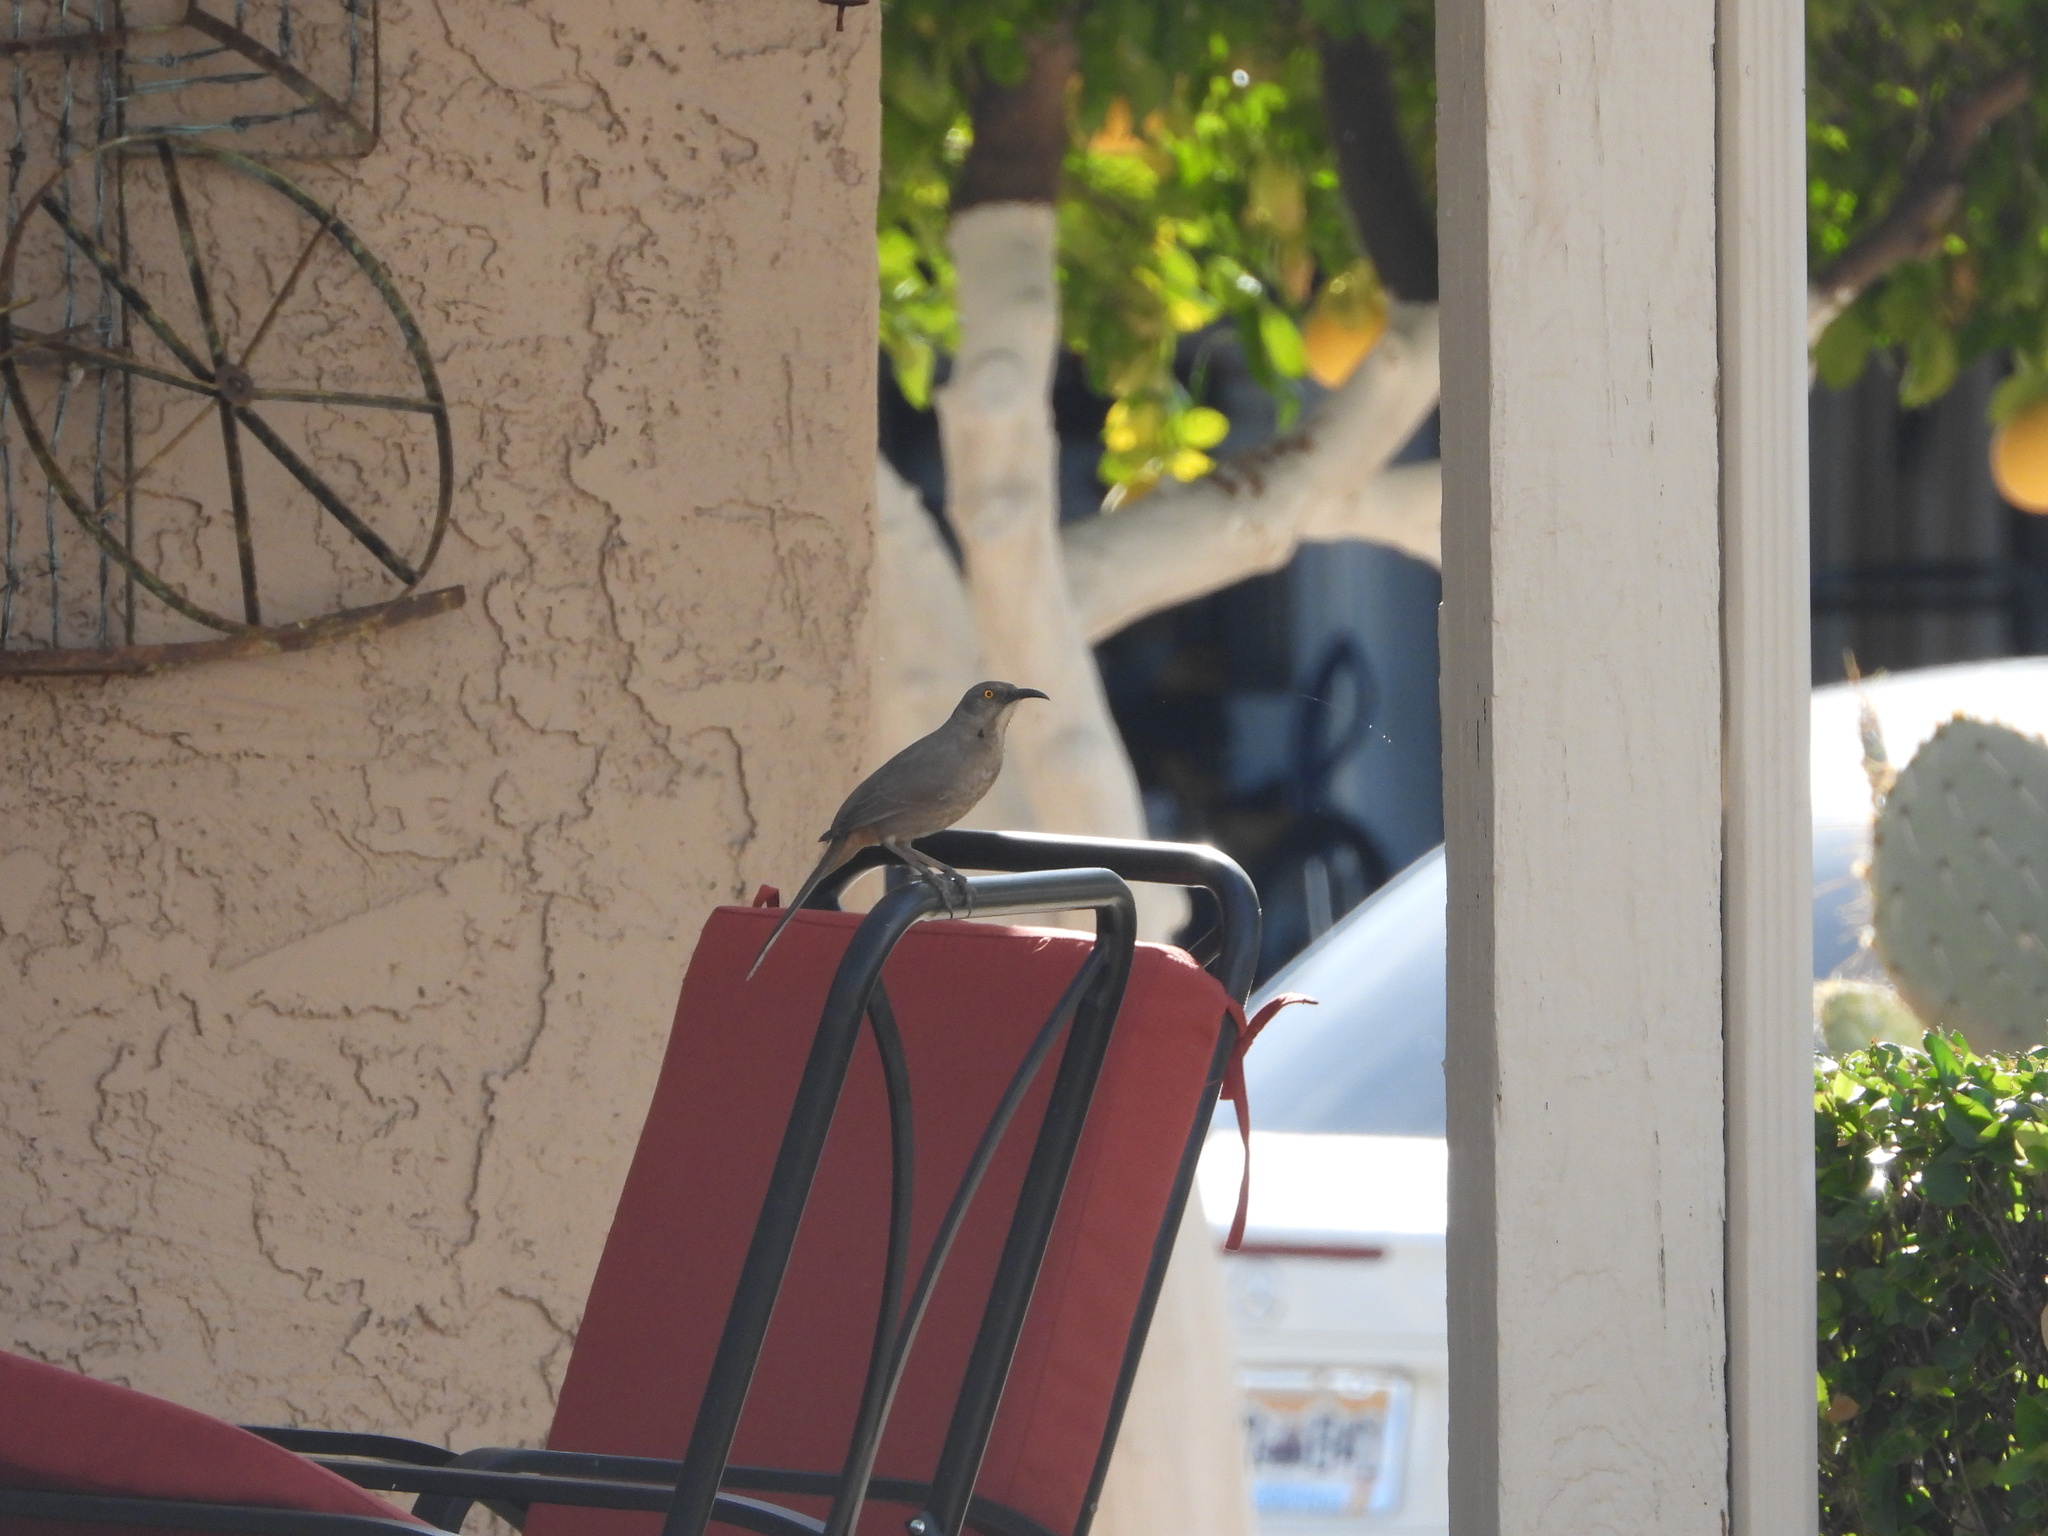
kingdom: Animalia
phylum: Chordata
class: Aves
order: Passeriformes
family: Mimidae
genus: Toxostoma
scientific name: Toxostoma curvirostre
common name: Curve-billed thrasher
